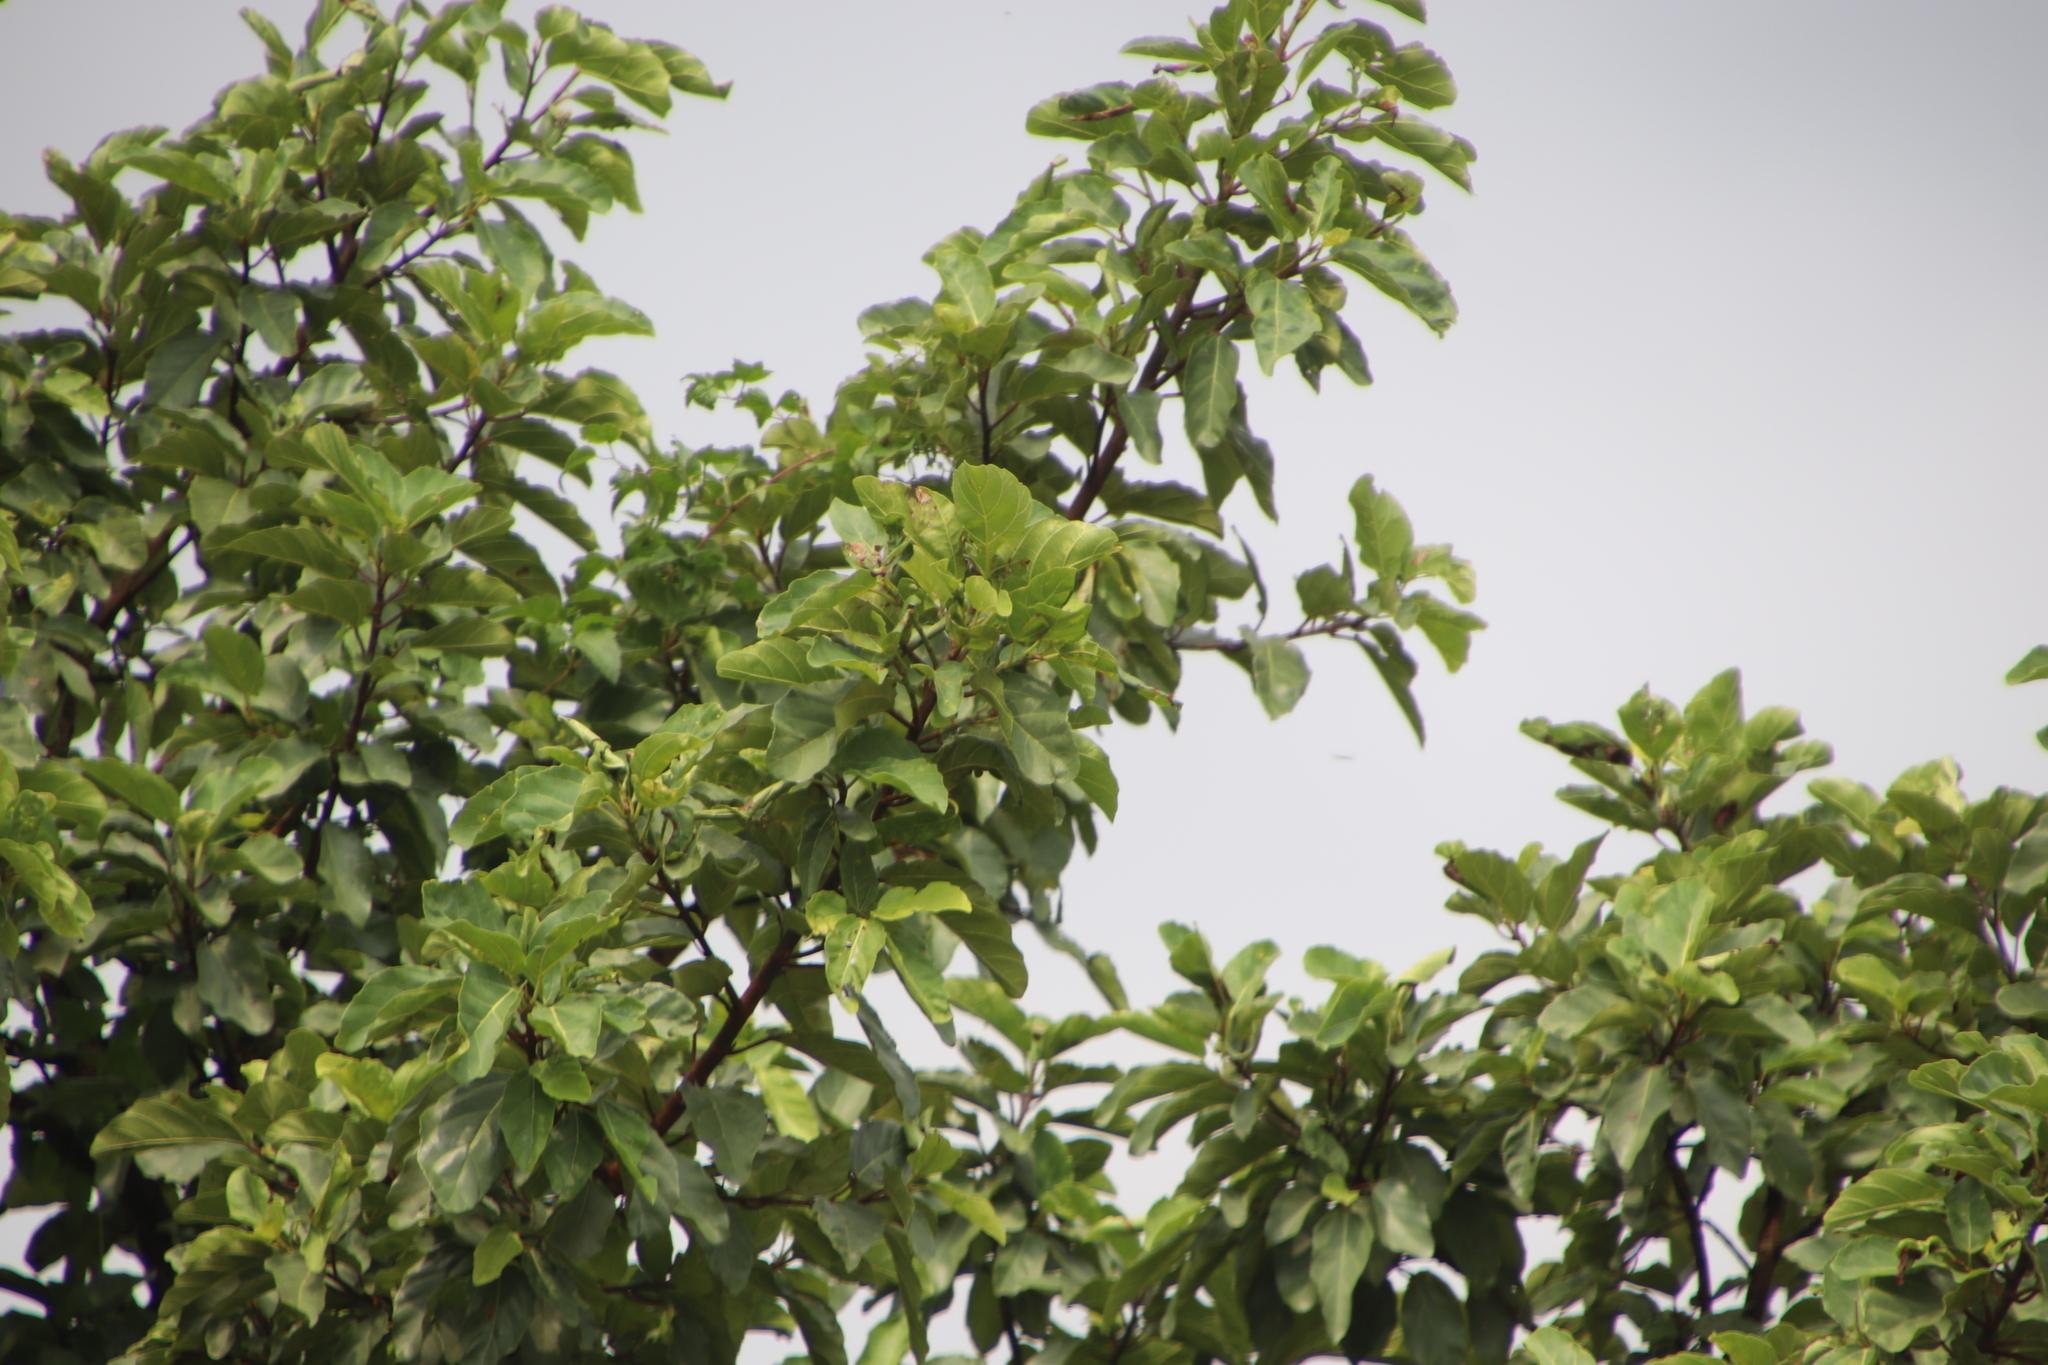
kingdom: Plantae
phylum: Tracheophyta
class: Magnoliopsida
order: Rosales
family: Moraceae
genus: Ficus
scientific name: Ficus sur
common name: Cape fig
